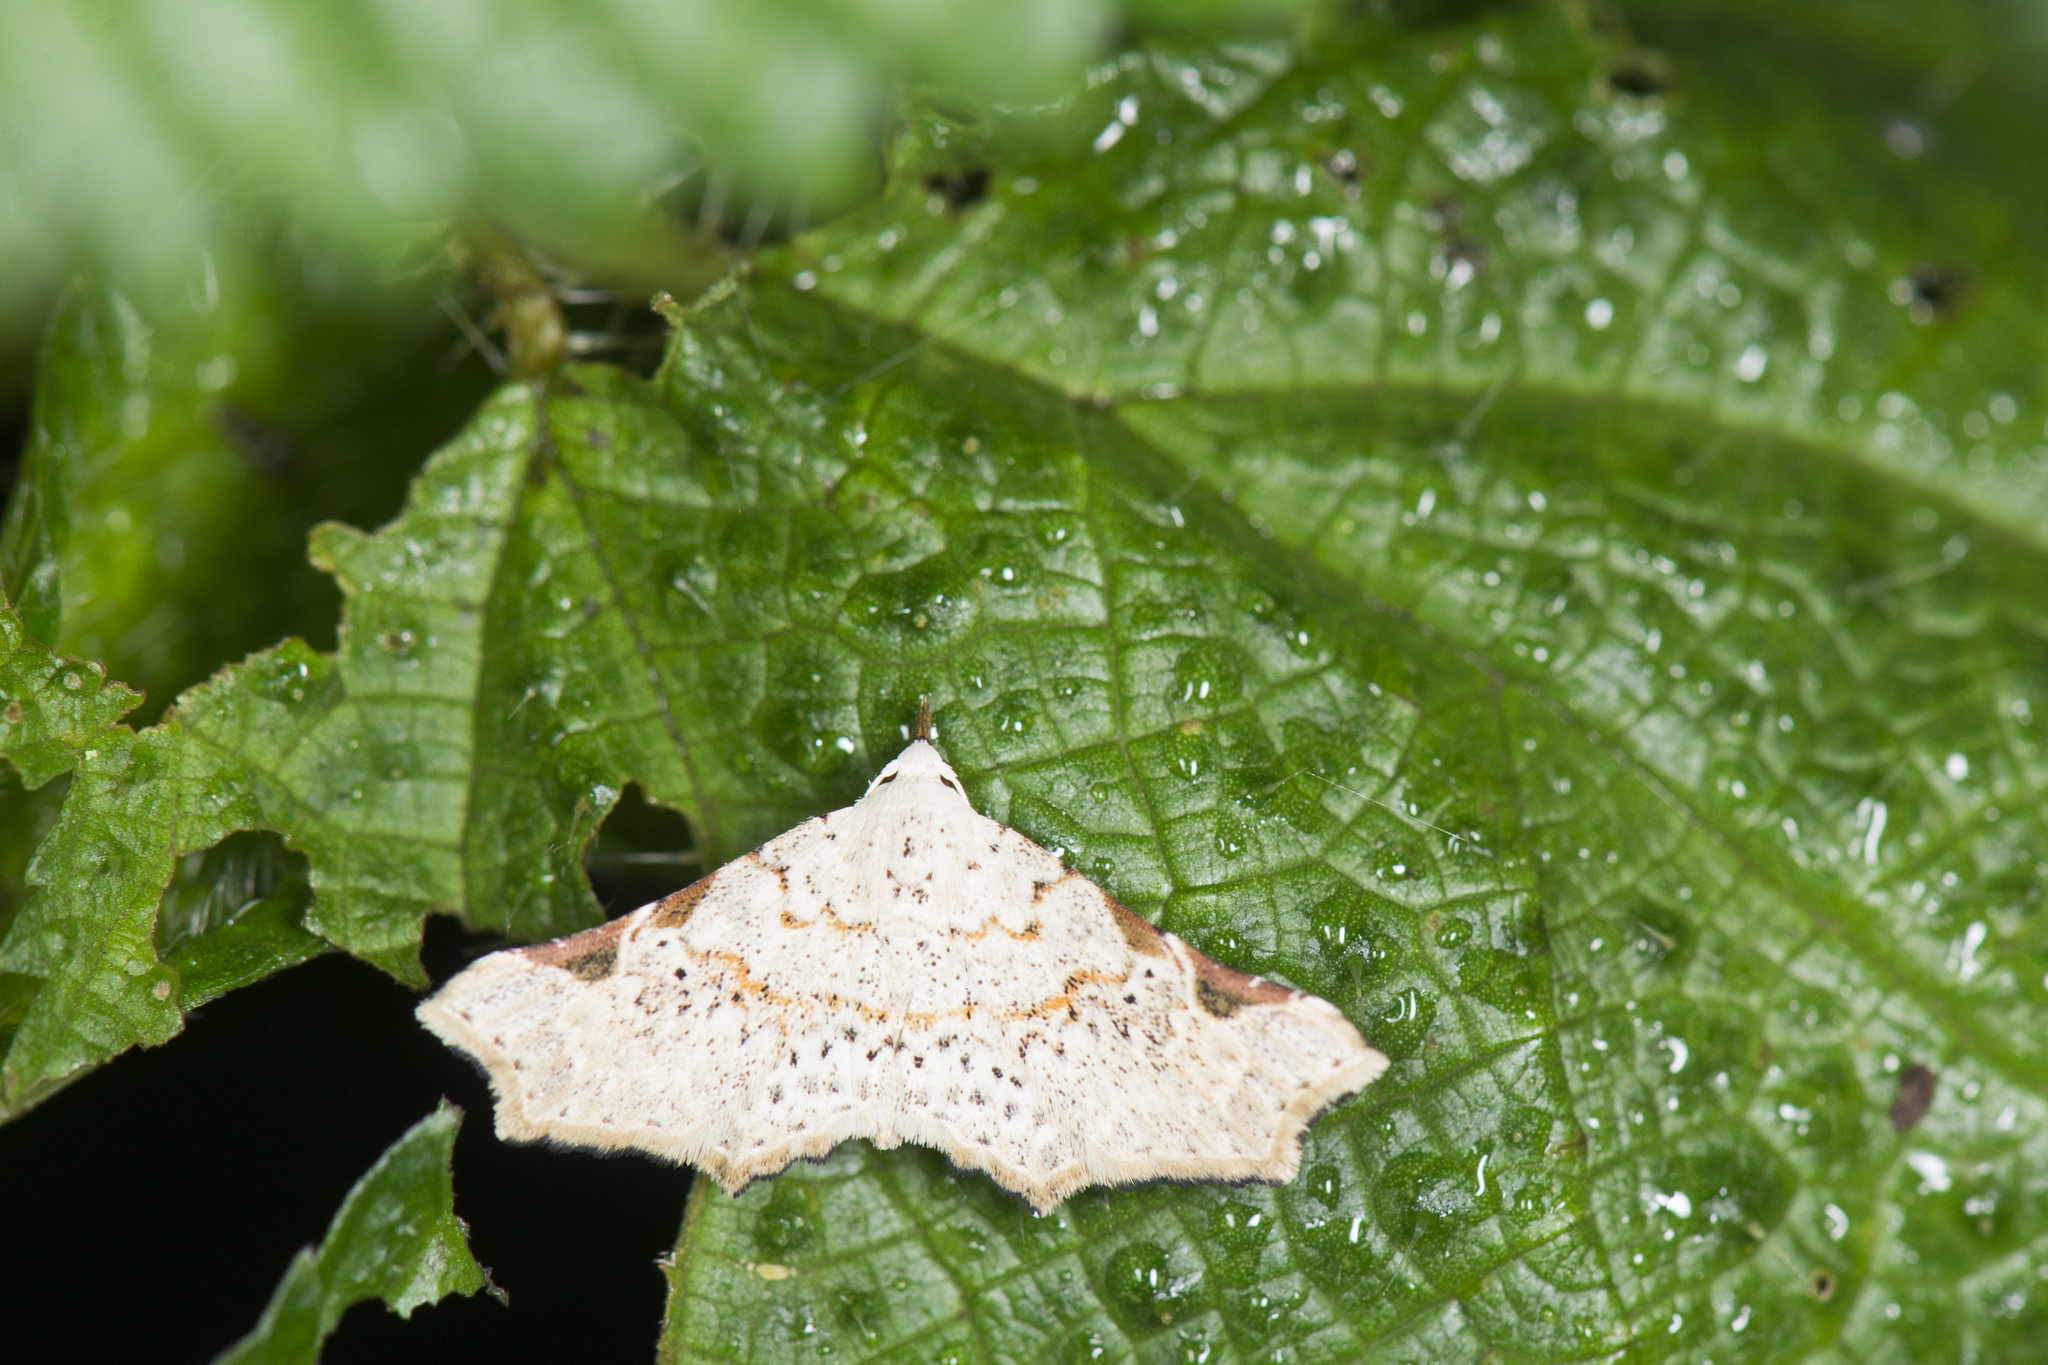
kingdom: Animalia
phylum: Arthropoda
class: Insecta
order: Lepidoptera
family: Erebidae
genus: Prolophota
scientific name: Prolophota trigonifera
